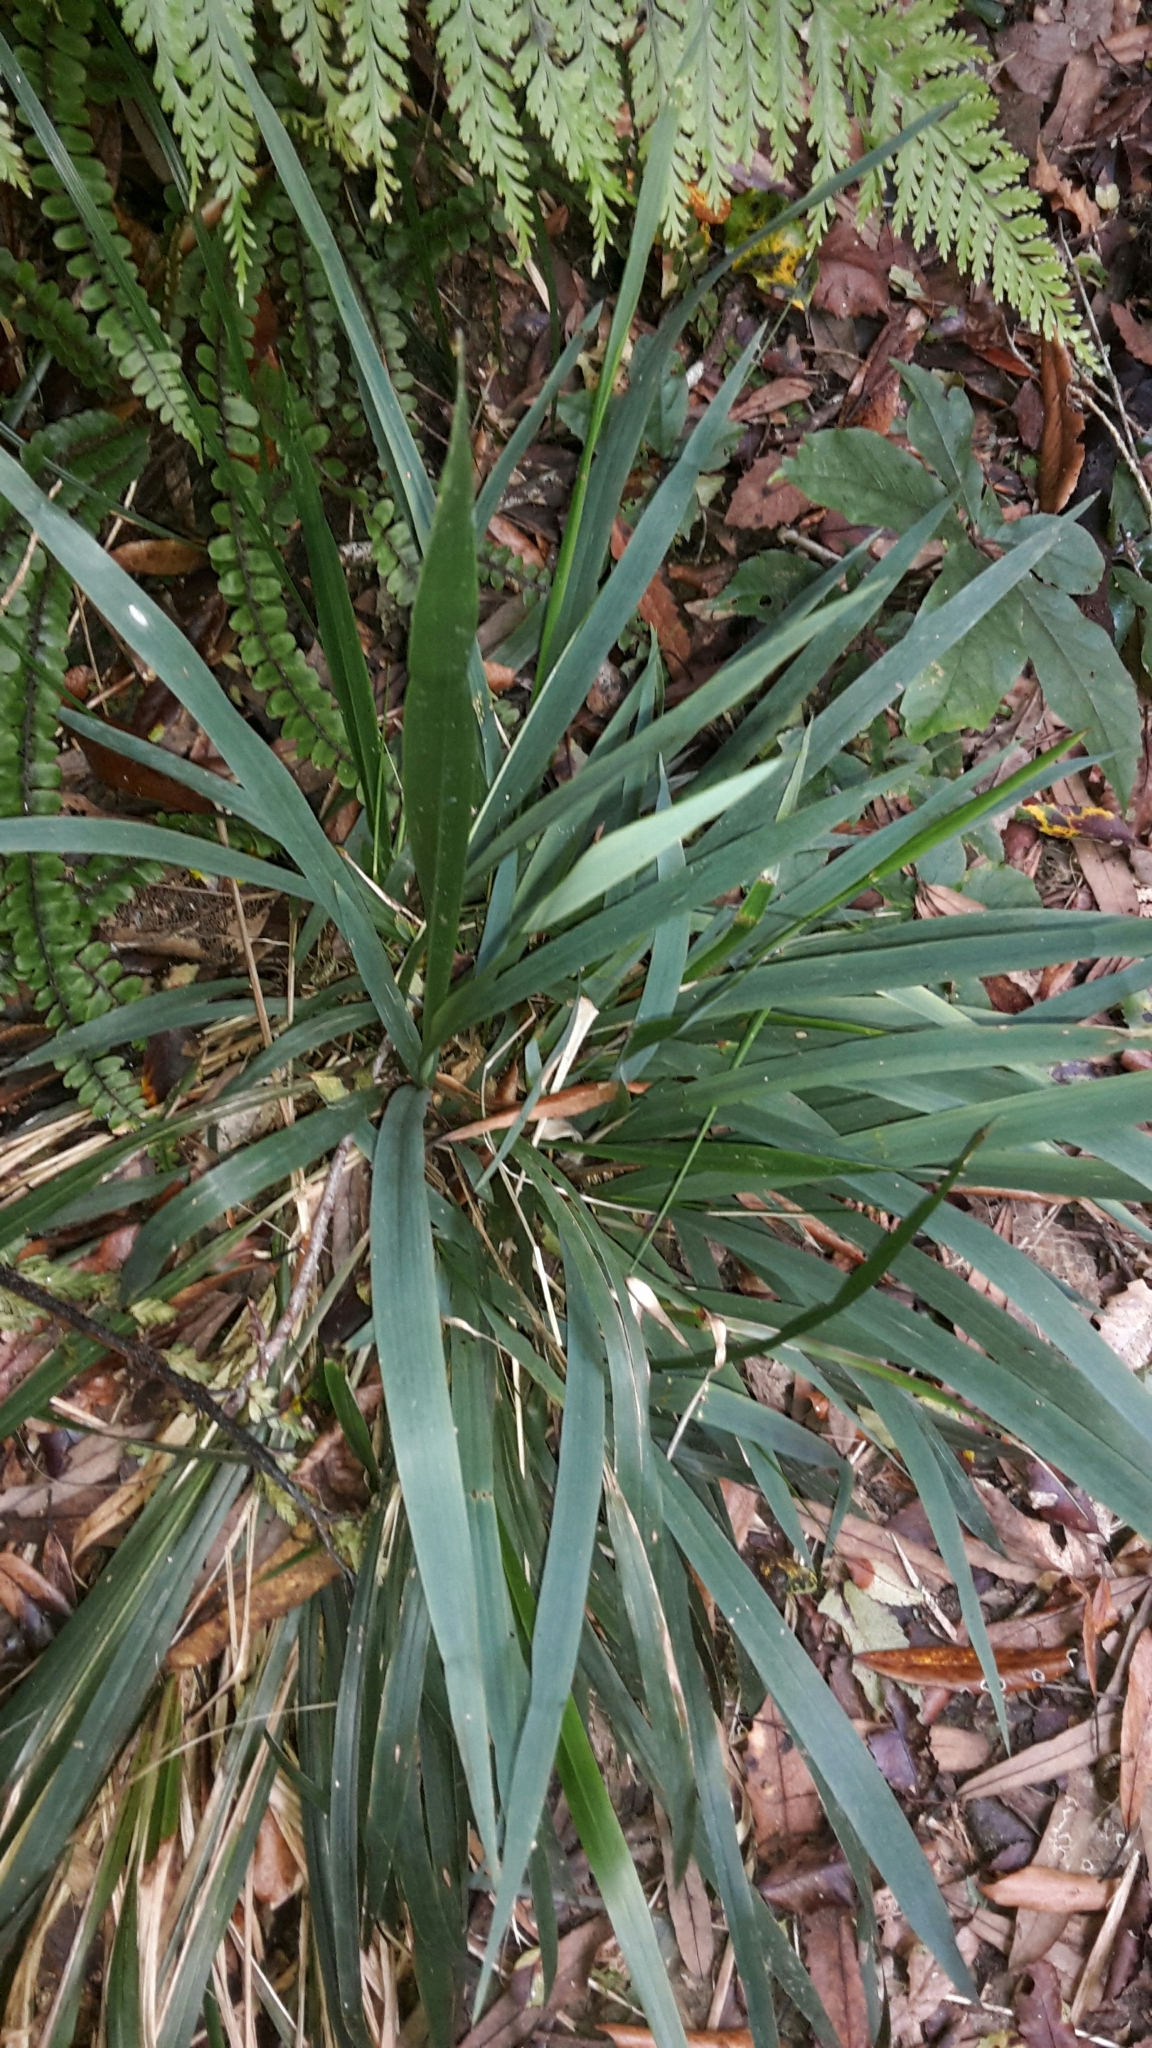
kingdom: Plantae
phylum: Tracheophyta
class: Liliopsida
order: Poales
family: Poaceae
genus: Ehrharta
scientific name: Ehrharta diplax
